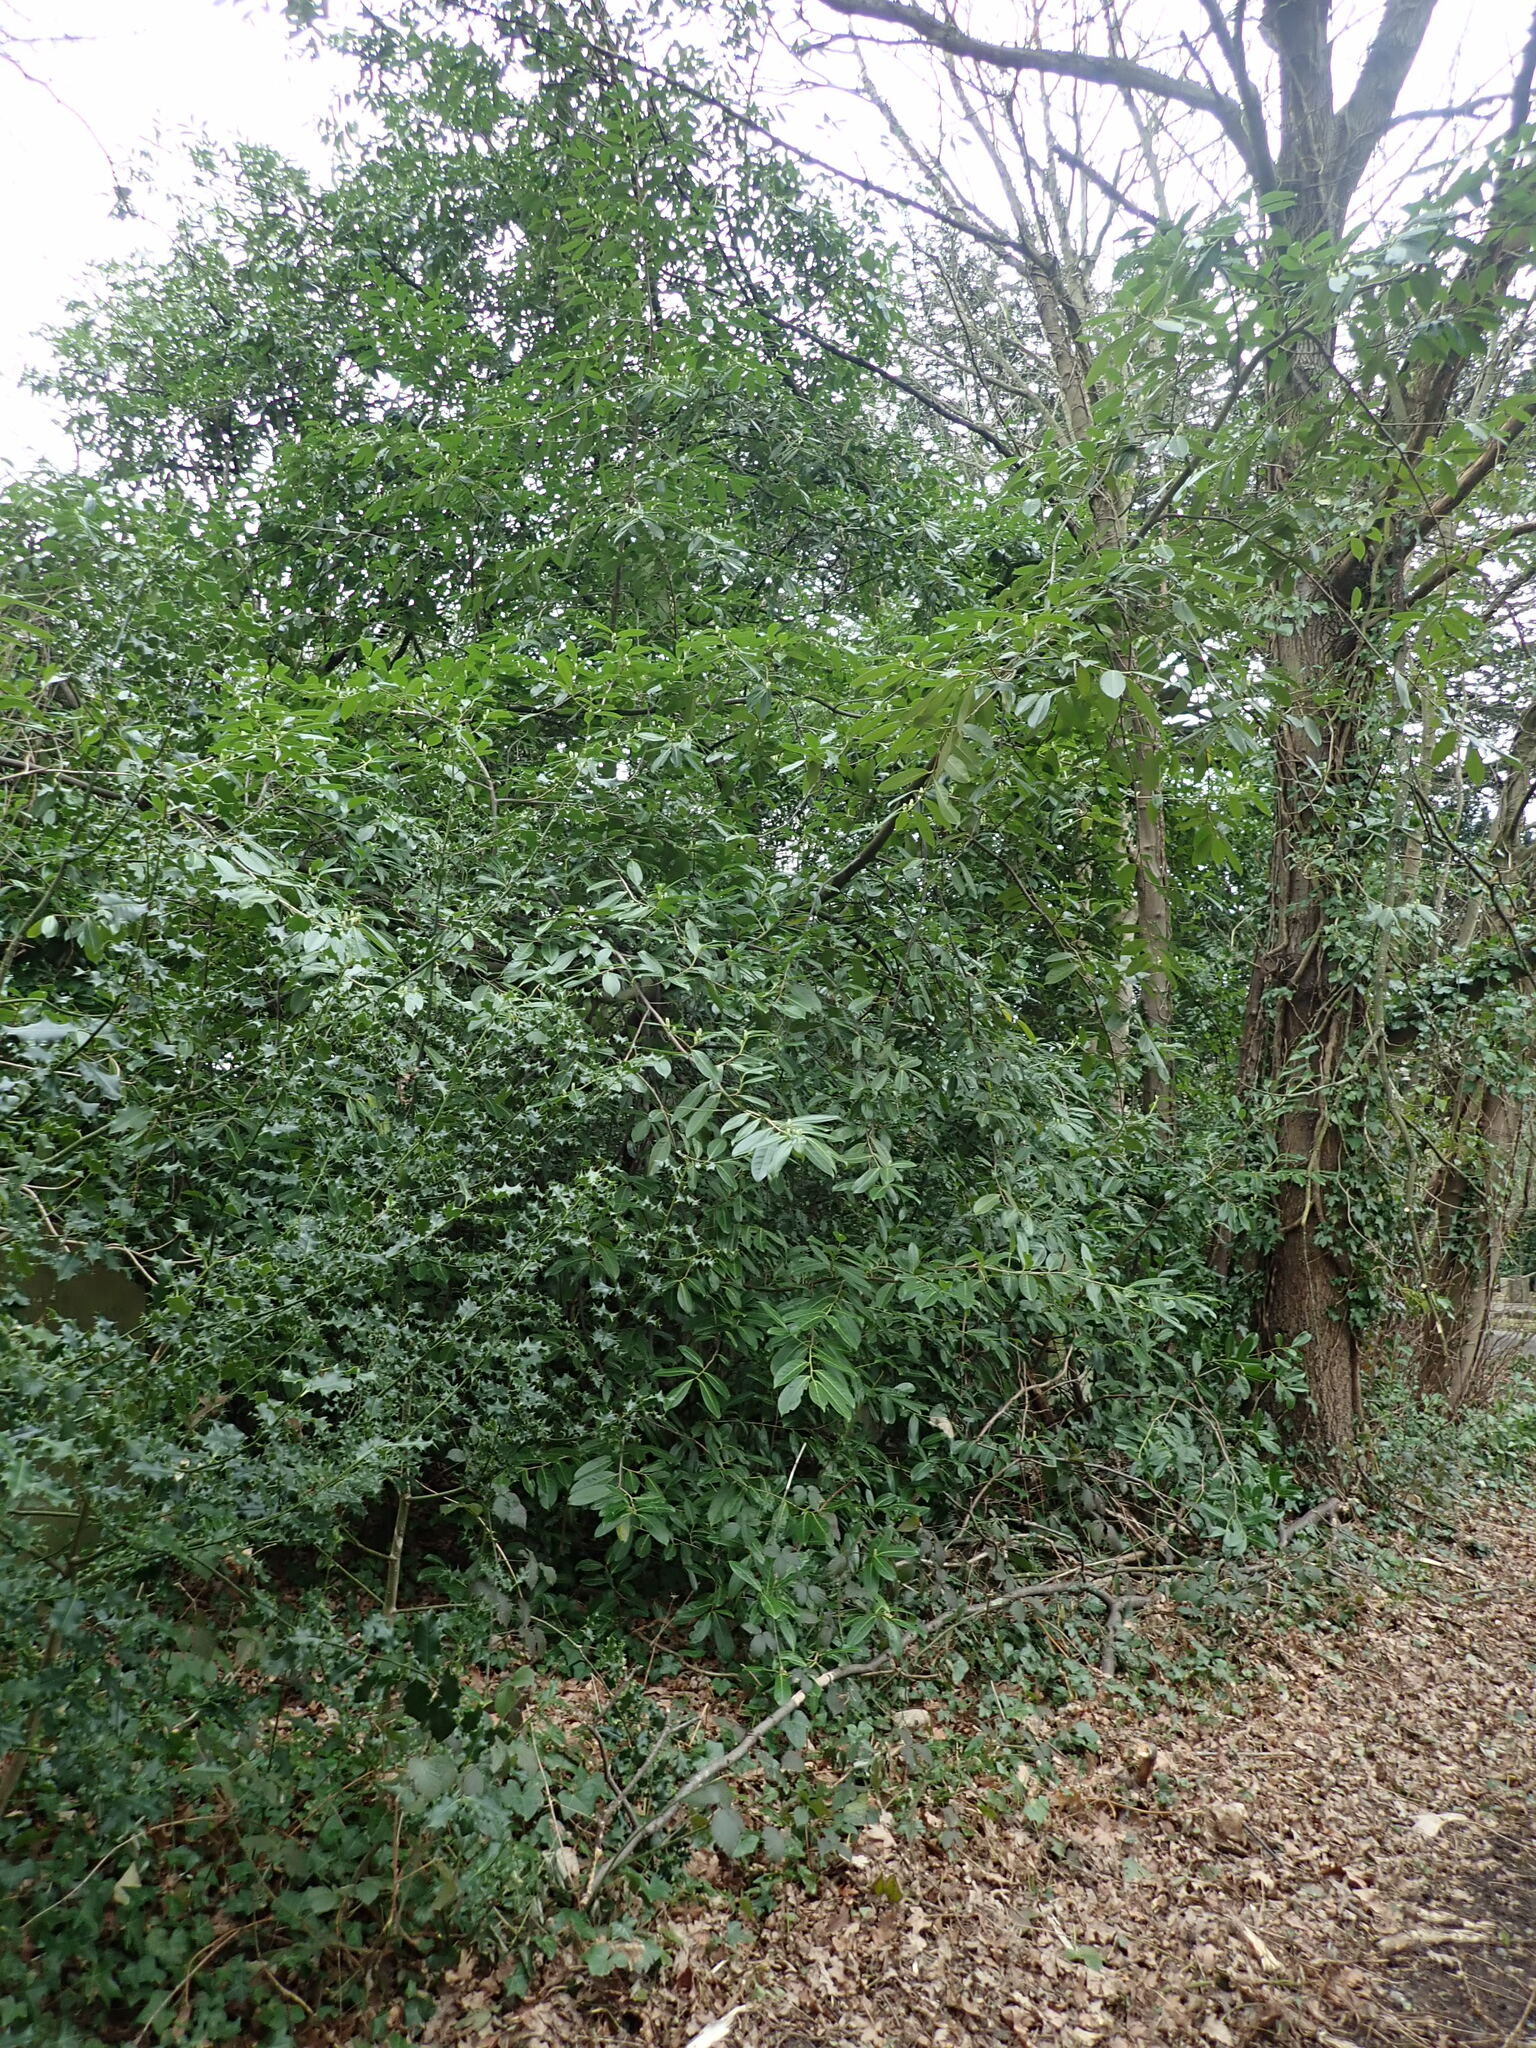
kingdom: Plantae
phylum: Tracheophyta
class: Magnoliopsida
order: Rosales
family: Rosaceae
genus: Prunus
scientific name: Prunus laurocerasus
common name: Cherry laurel
